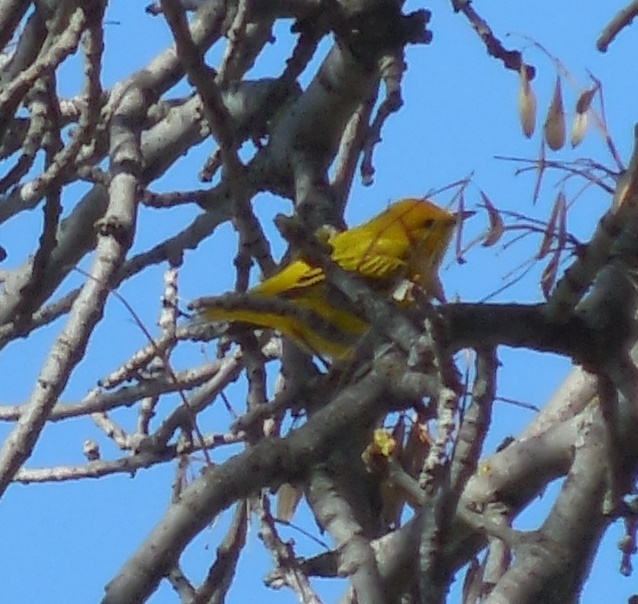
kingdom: Animalia
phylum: Chordata
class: Aves
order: Passeriformes
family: Parulidae
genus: Setophaga
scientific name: Setophaga petechia
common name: Yellow warbler
